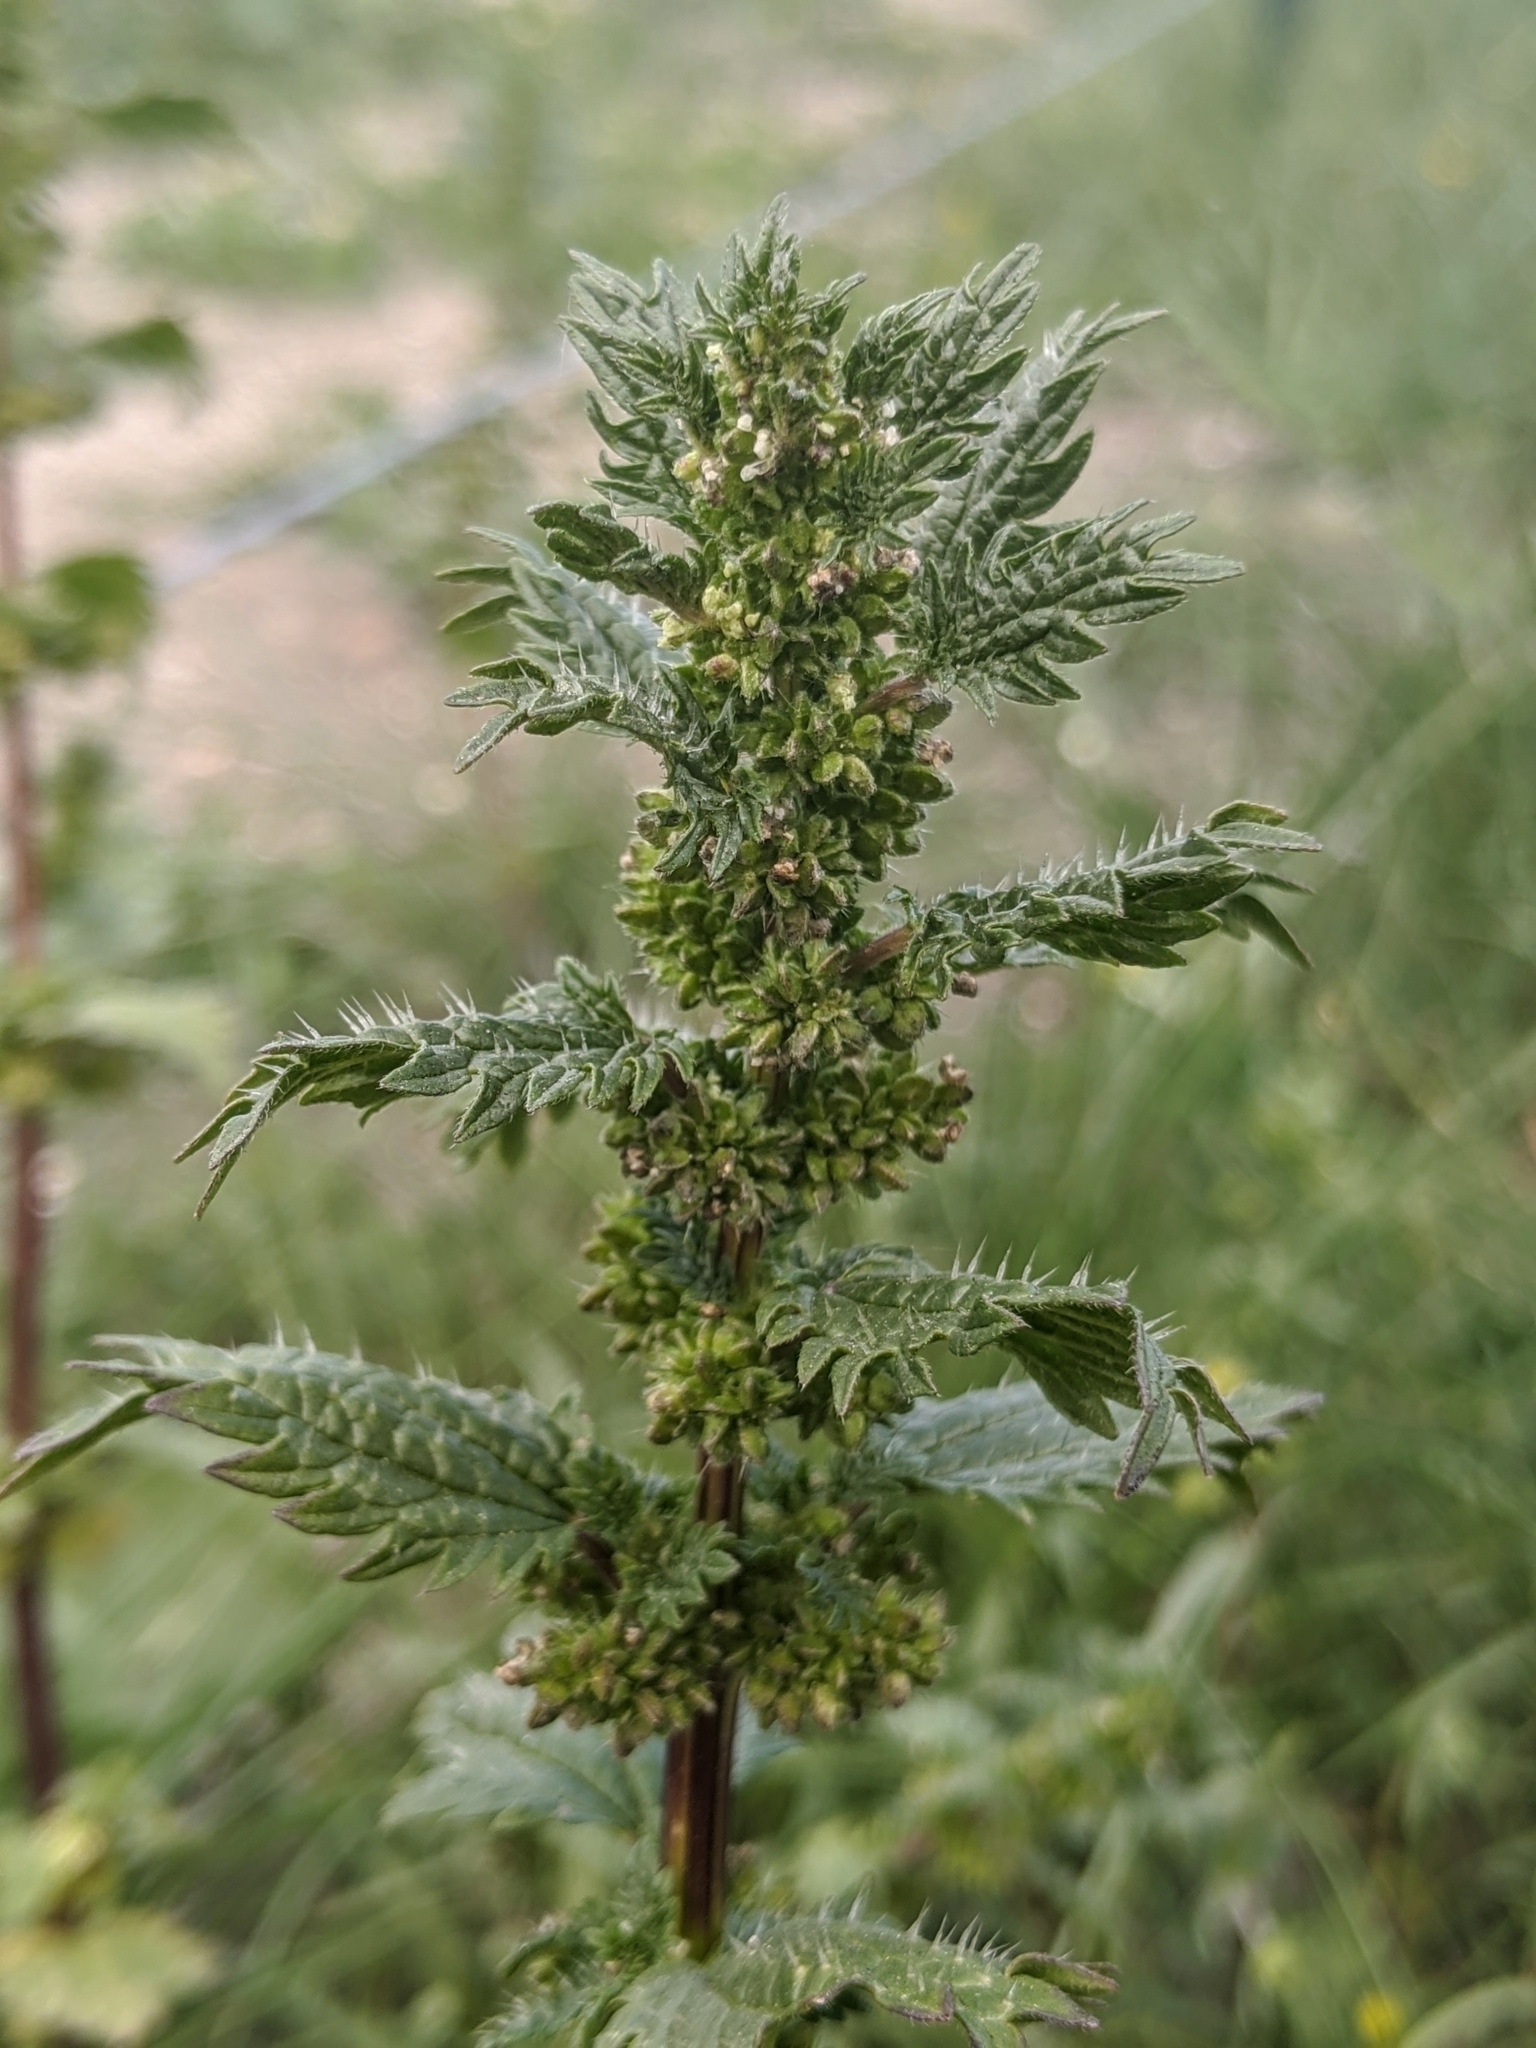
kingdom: Plantae
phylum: Tracheophyta
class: Magnoliopsida
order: Rosales
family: Urticaceae
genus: Urtica
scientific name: Urtica urens
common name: Dwarf nettle
